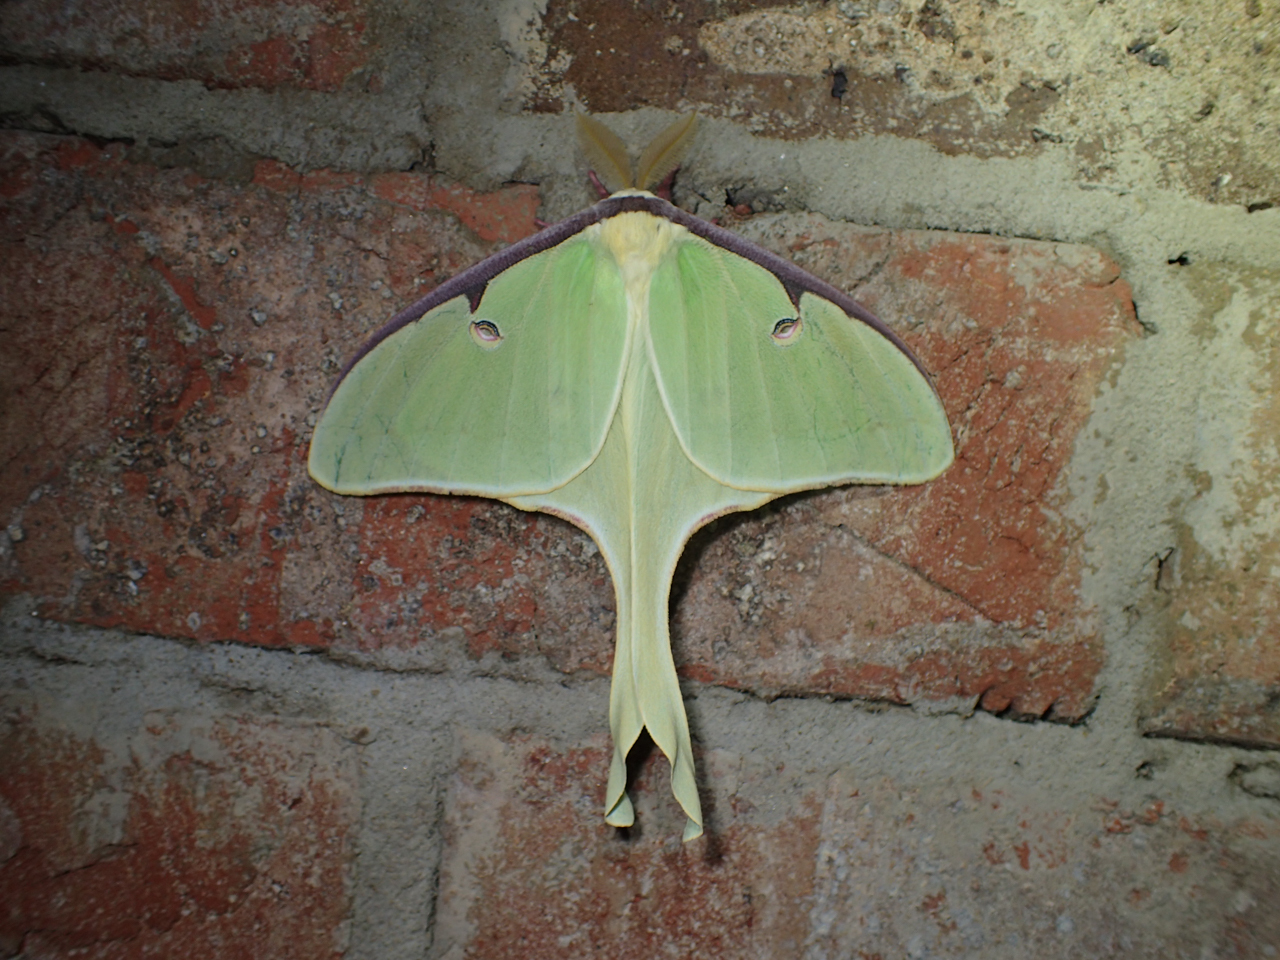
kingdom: Animalia
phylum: Arthropoda
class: Insecta
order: Lepidoptera
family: Saturniidae
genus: Actias
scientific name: Actias luna
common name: Luna moth
